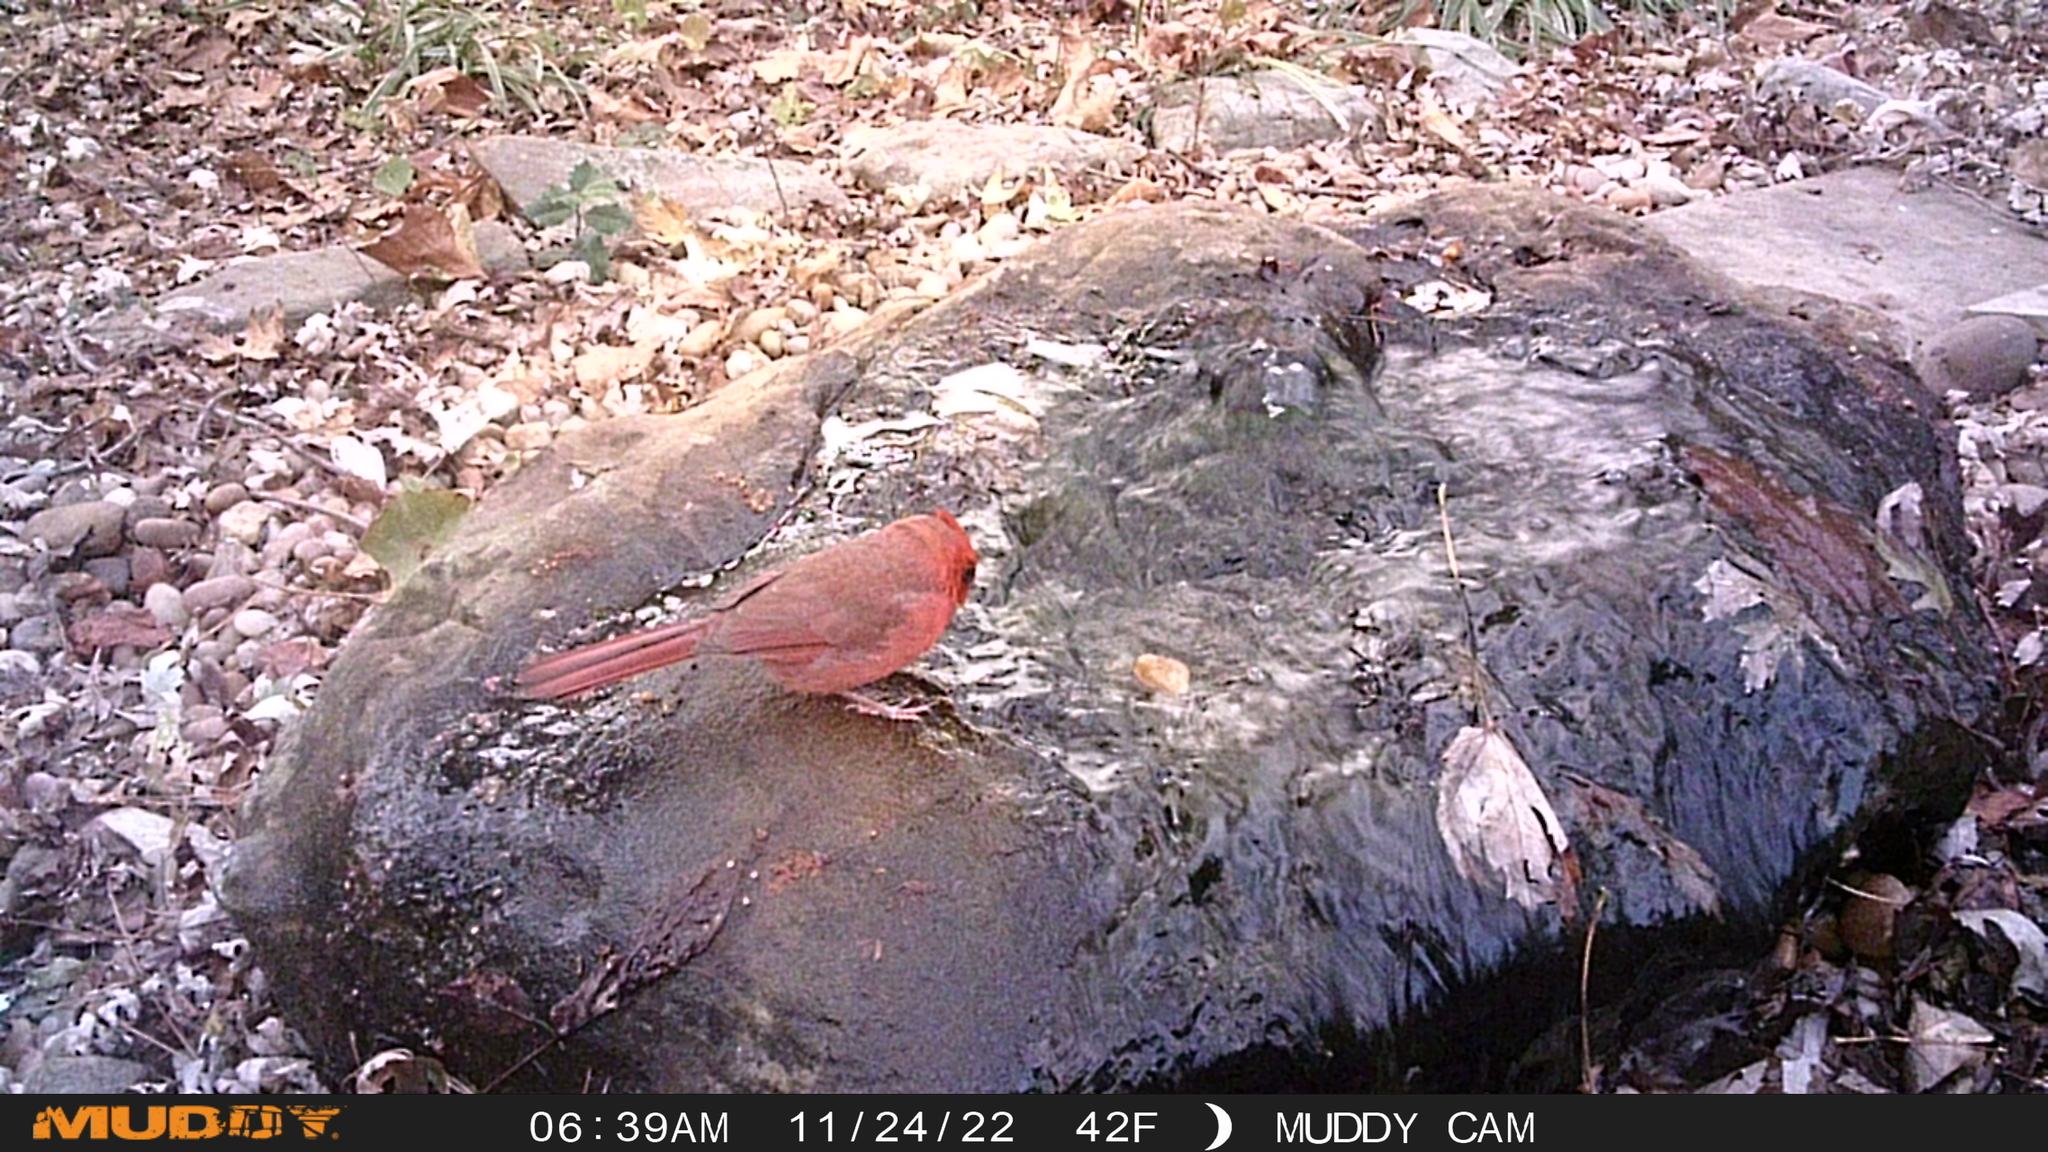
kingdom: Animalia
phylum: Chordata
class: Aves
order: Passeriformes
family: Cardinalidae
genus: Cardinalis
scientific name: Cardinalis cardinalis
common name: Northern cardinal
